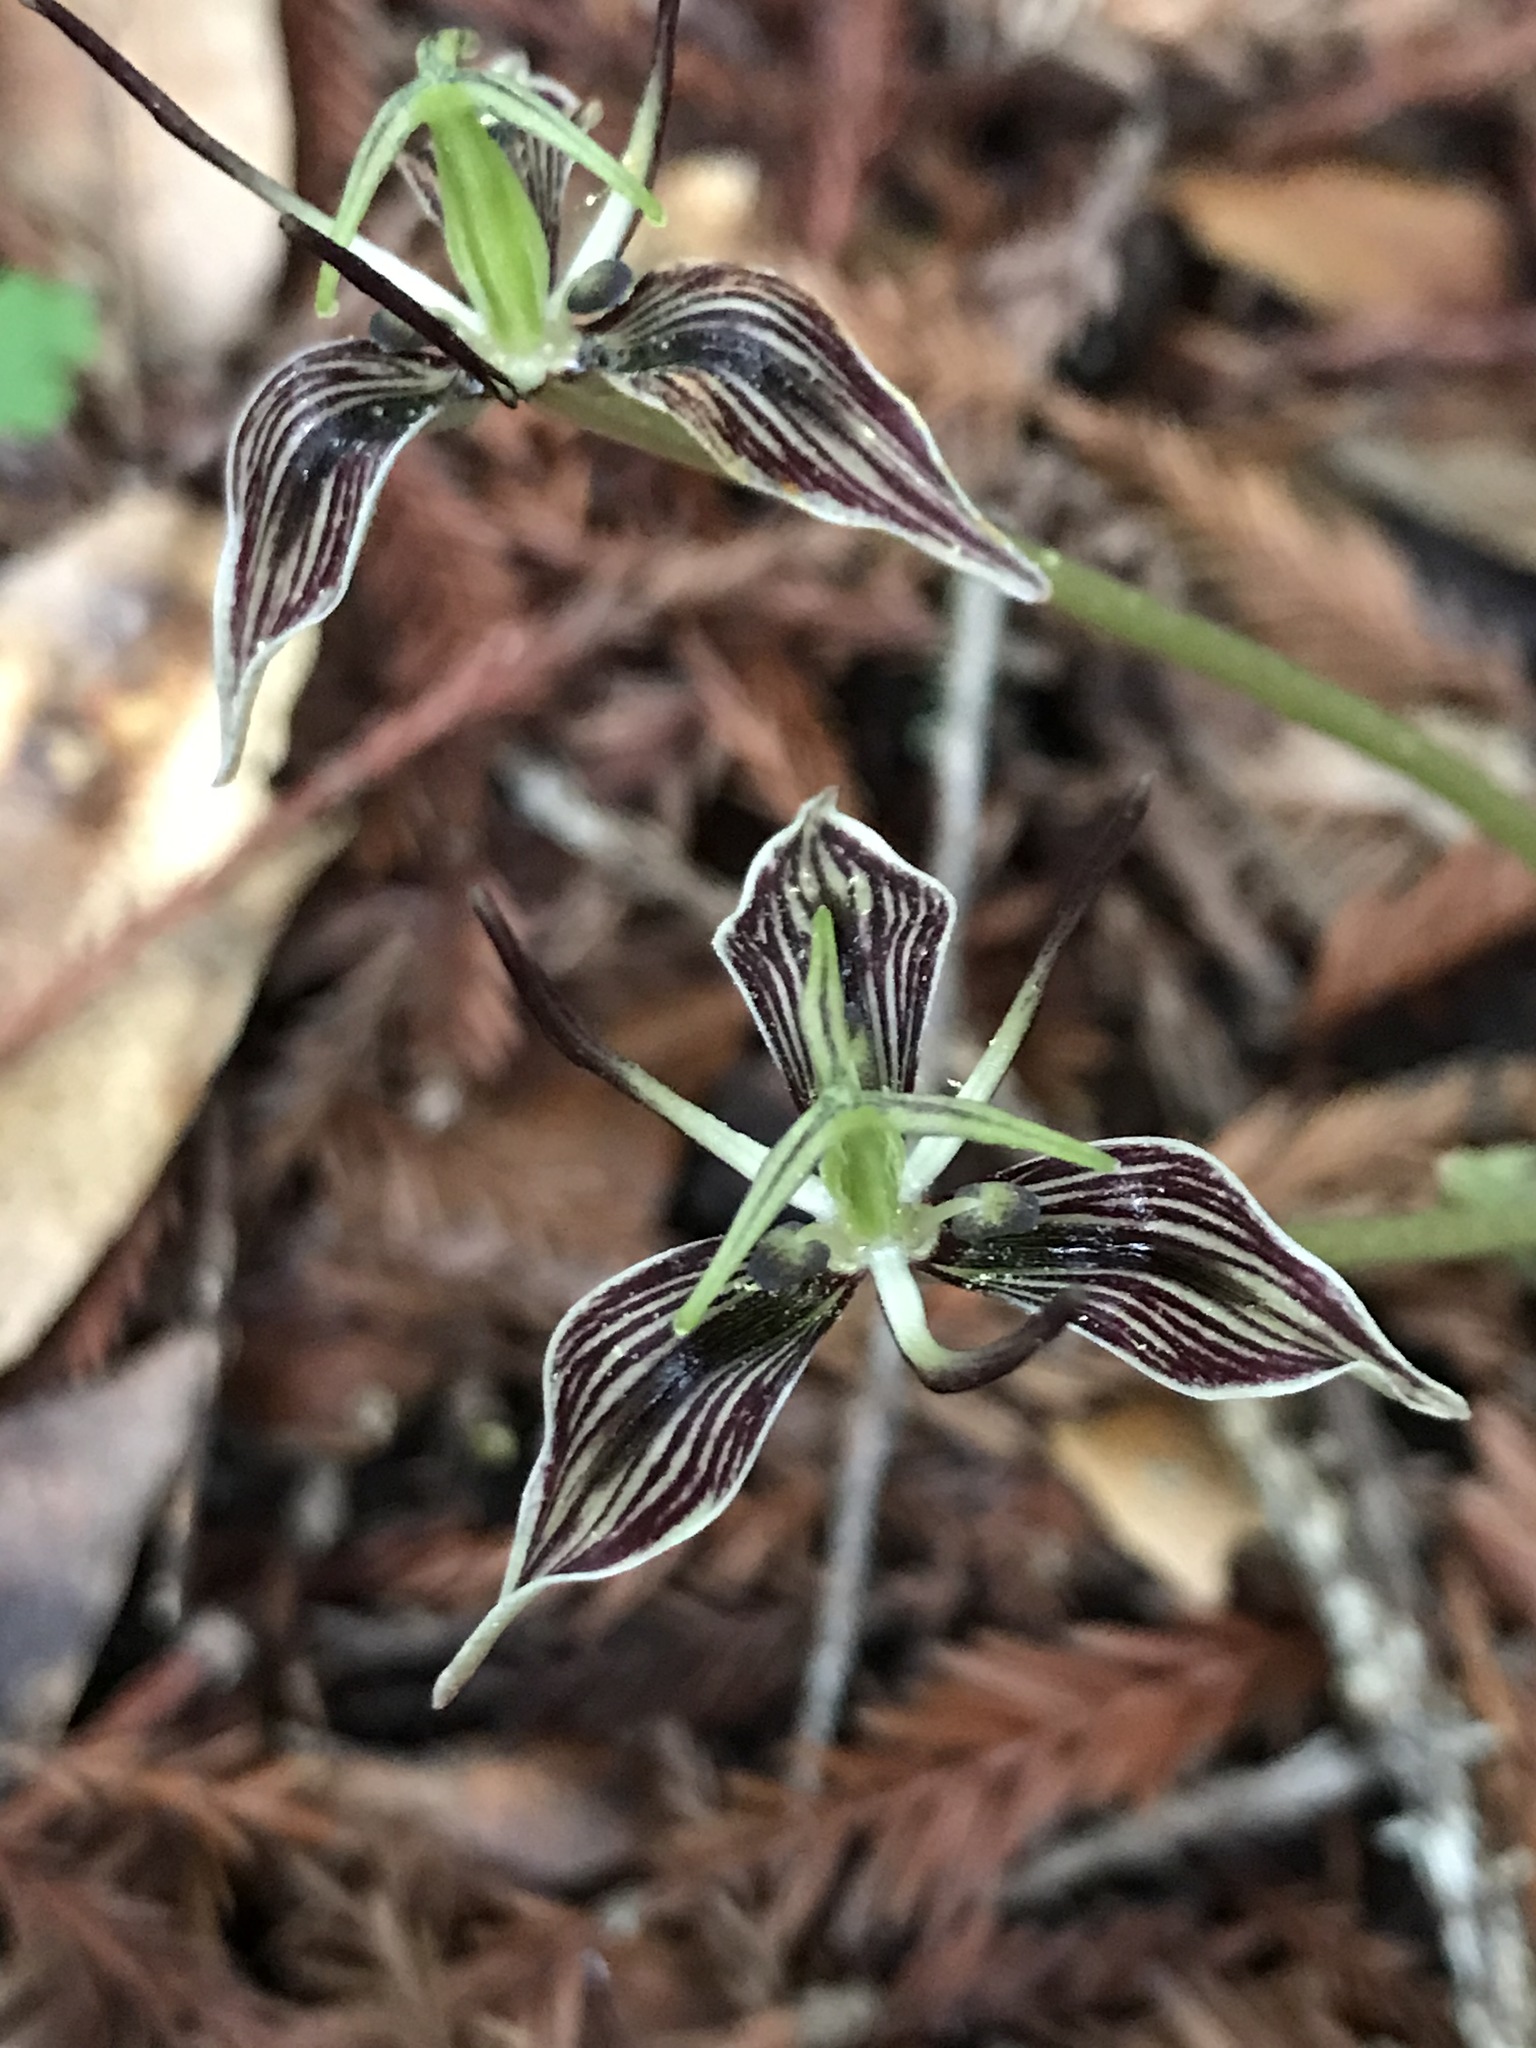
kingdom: Plantae
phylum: Tracheophyta
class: Liliopsida
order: Liliales
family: Liliaceae
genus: Scoliopus
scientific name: Scoliopus bigelovii
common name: Foetid adder's-tongue
